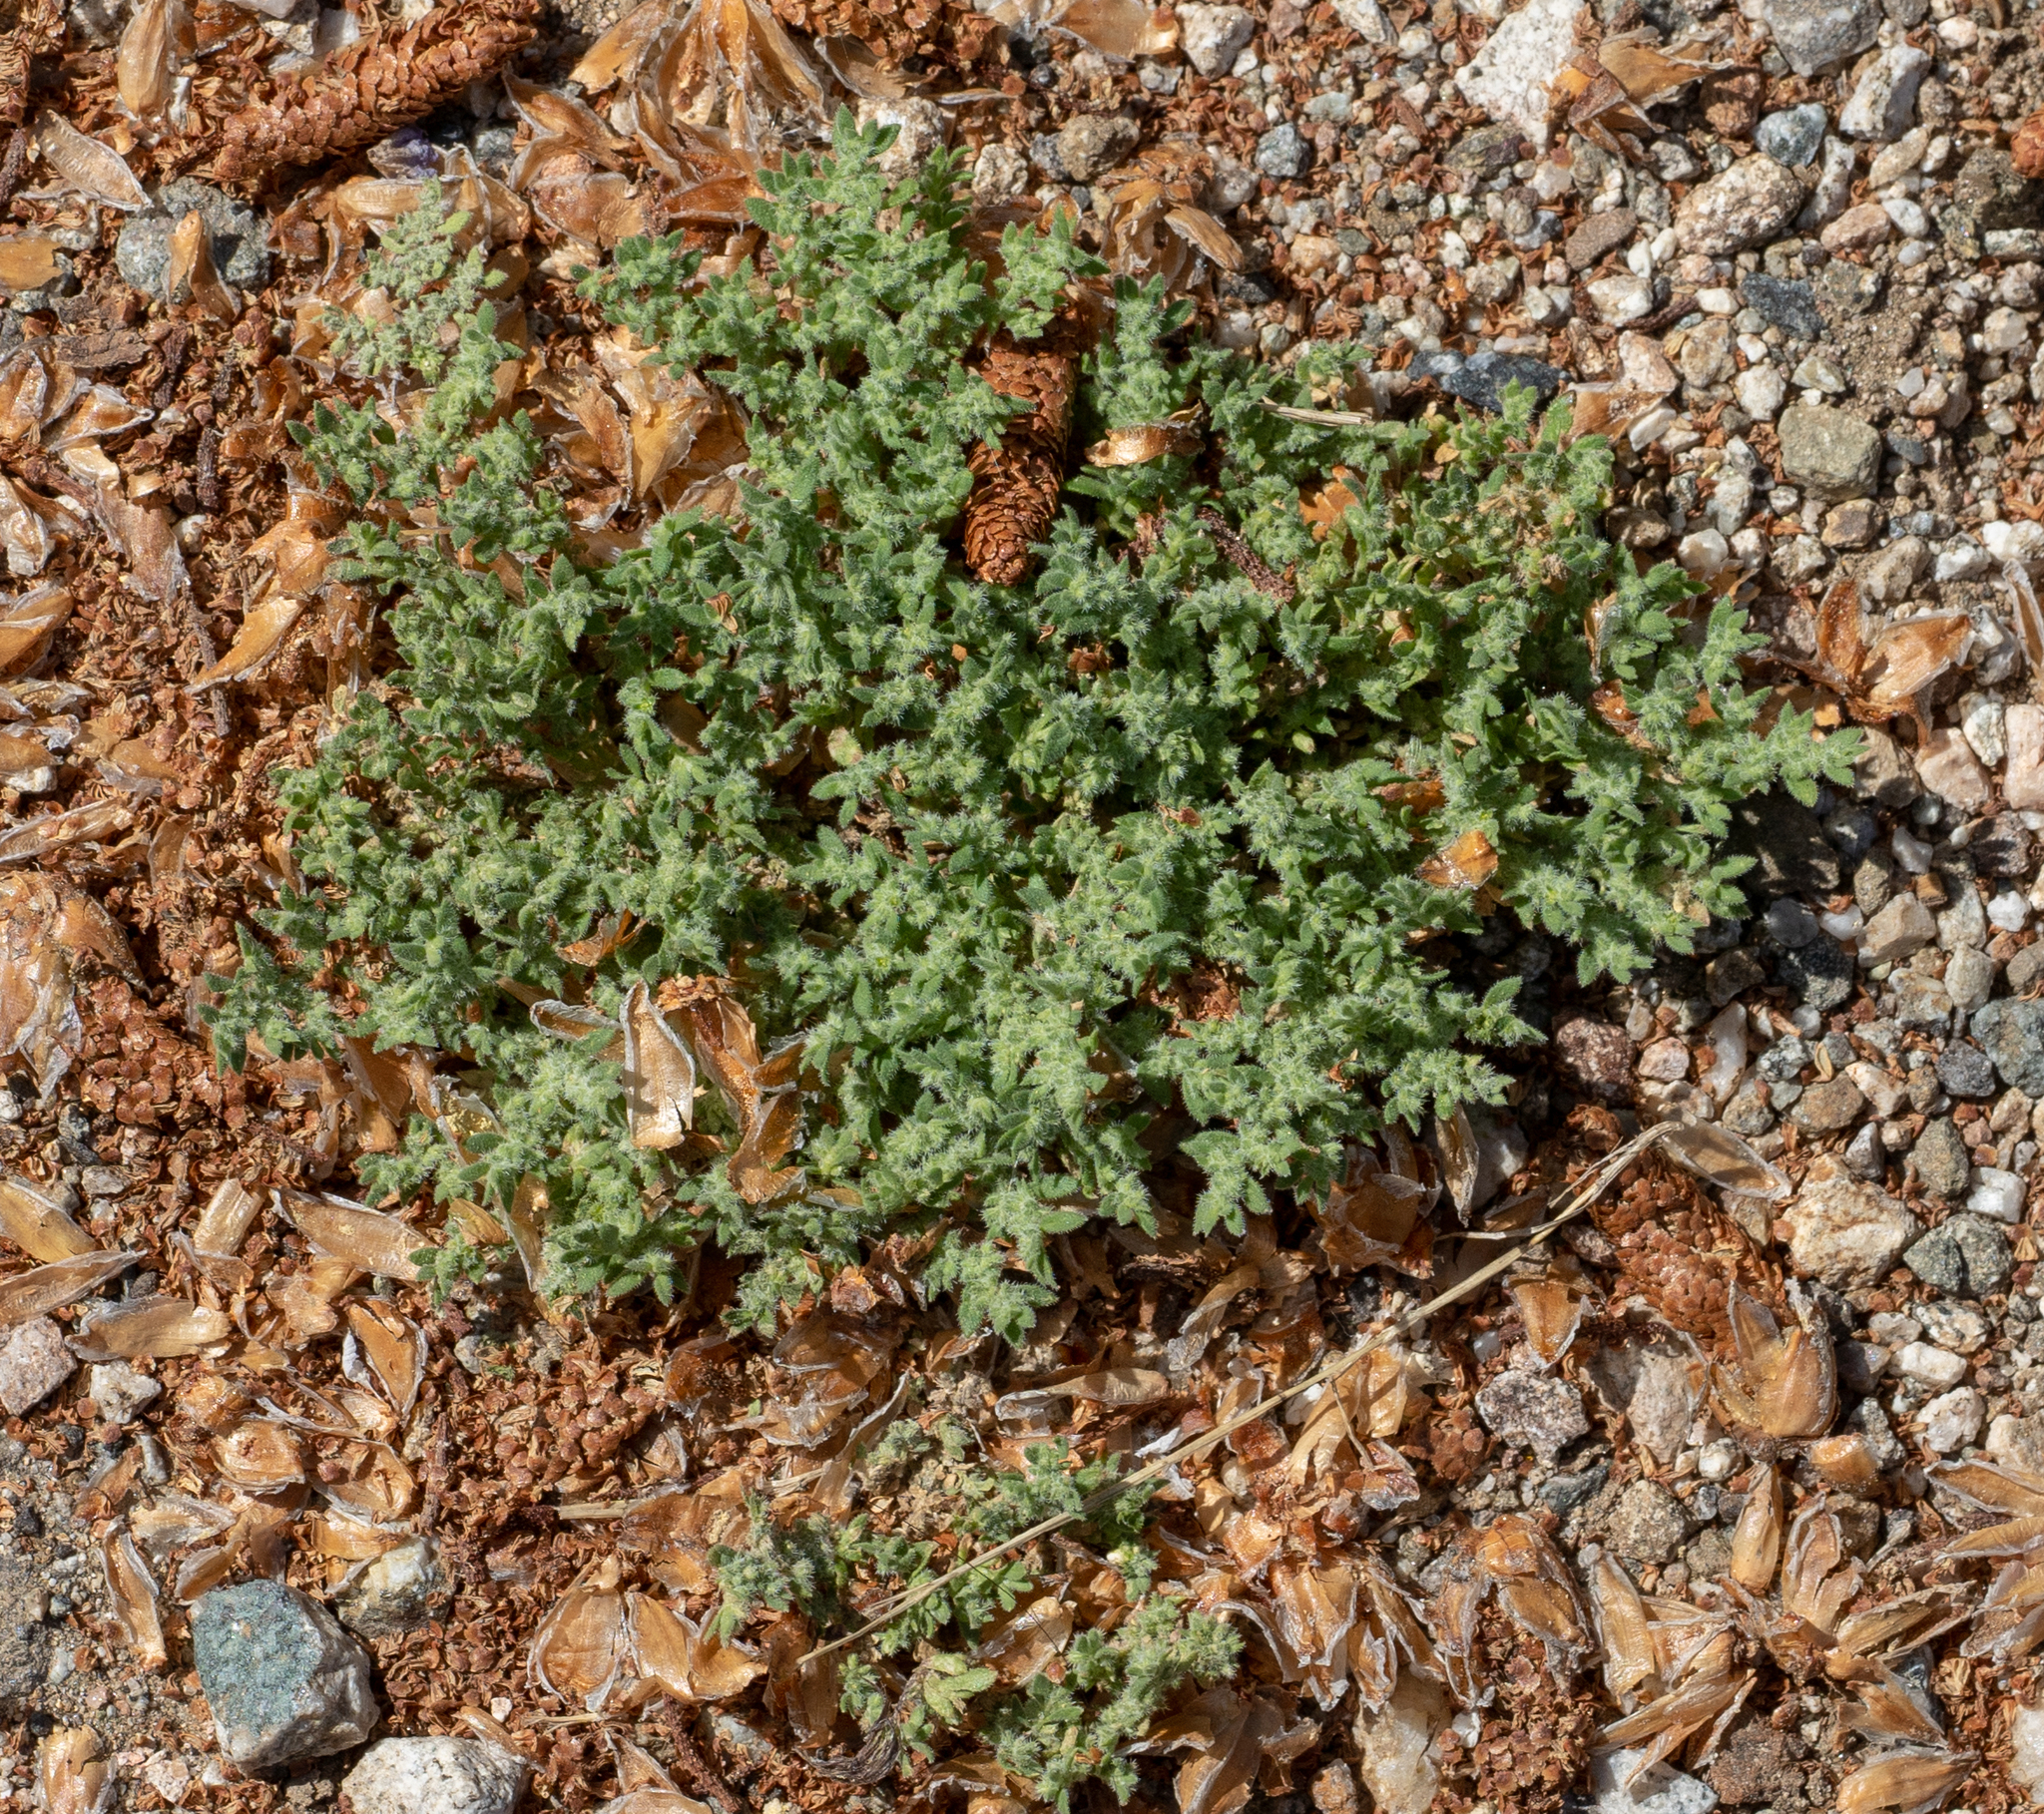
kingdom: Plantae
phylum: Tracheophyta
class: Magnoliopsida
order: Caryophyllales
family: Caryophyllaceae
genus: Herniaria
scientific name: Herniaria hirsuta
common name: Hairy rupturewort
